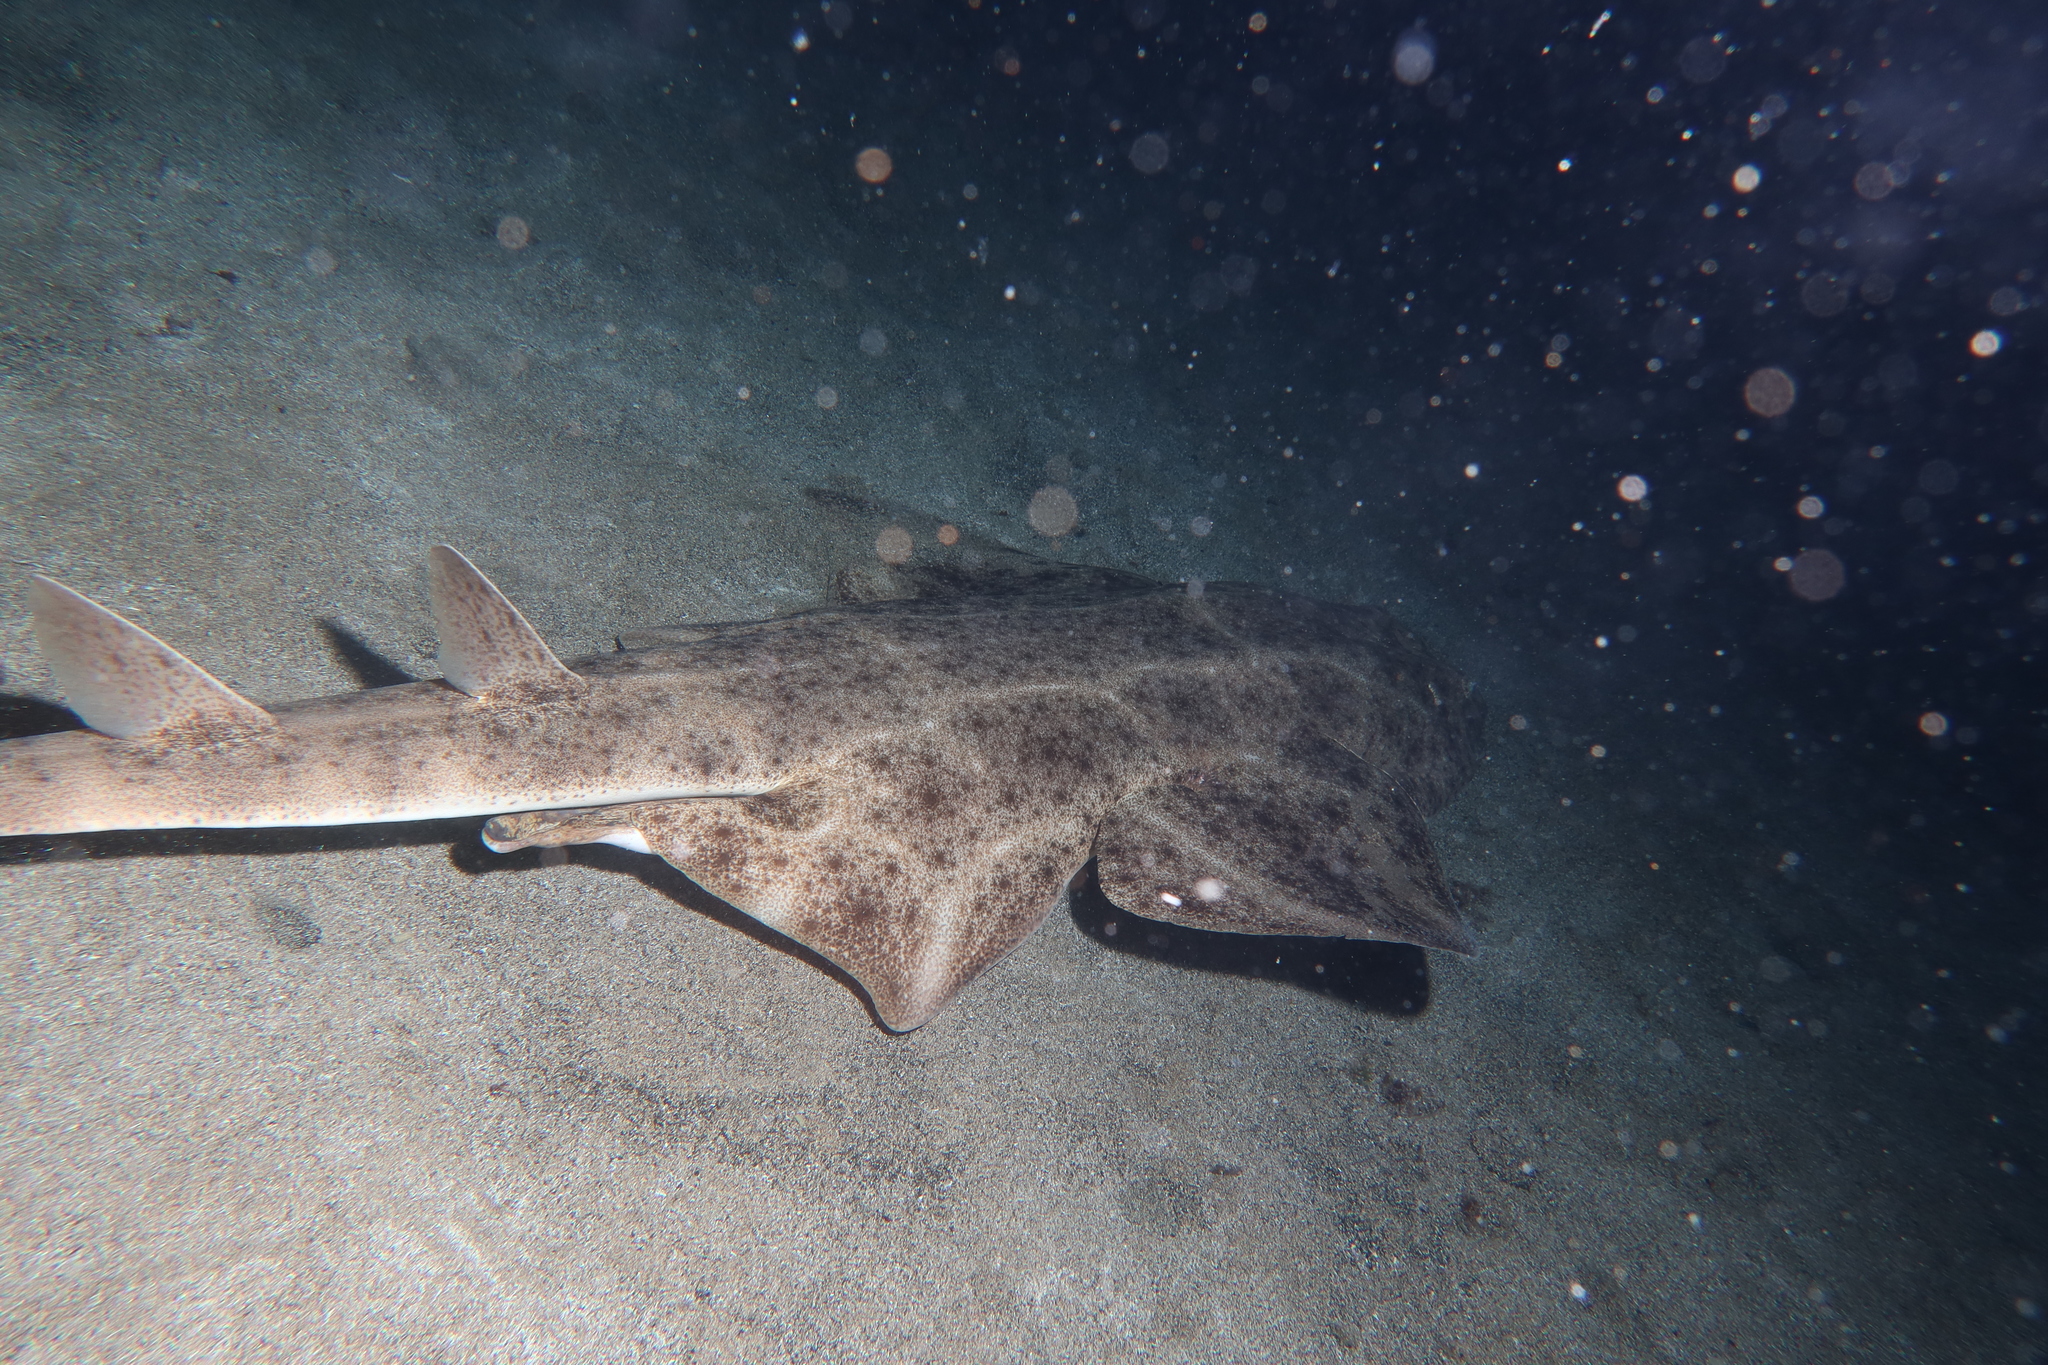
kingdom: Animalia
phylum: Chordata
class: Elasmobranchii
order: Squatiniformes
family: Squatinidae
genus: Squatina
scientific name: Squatina squatina
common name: Angel shark
